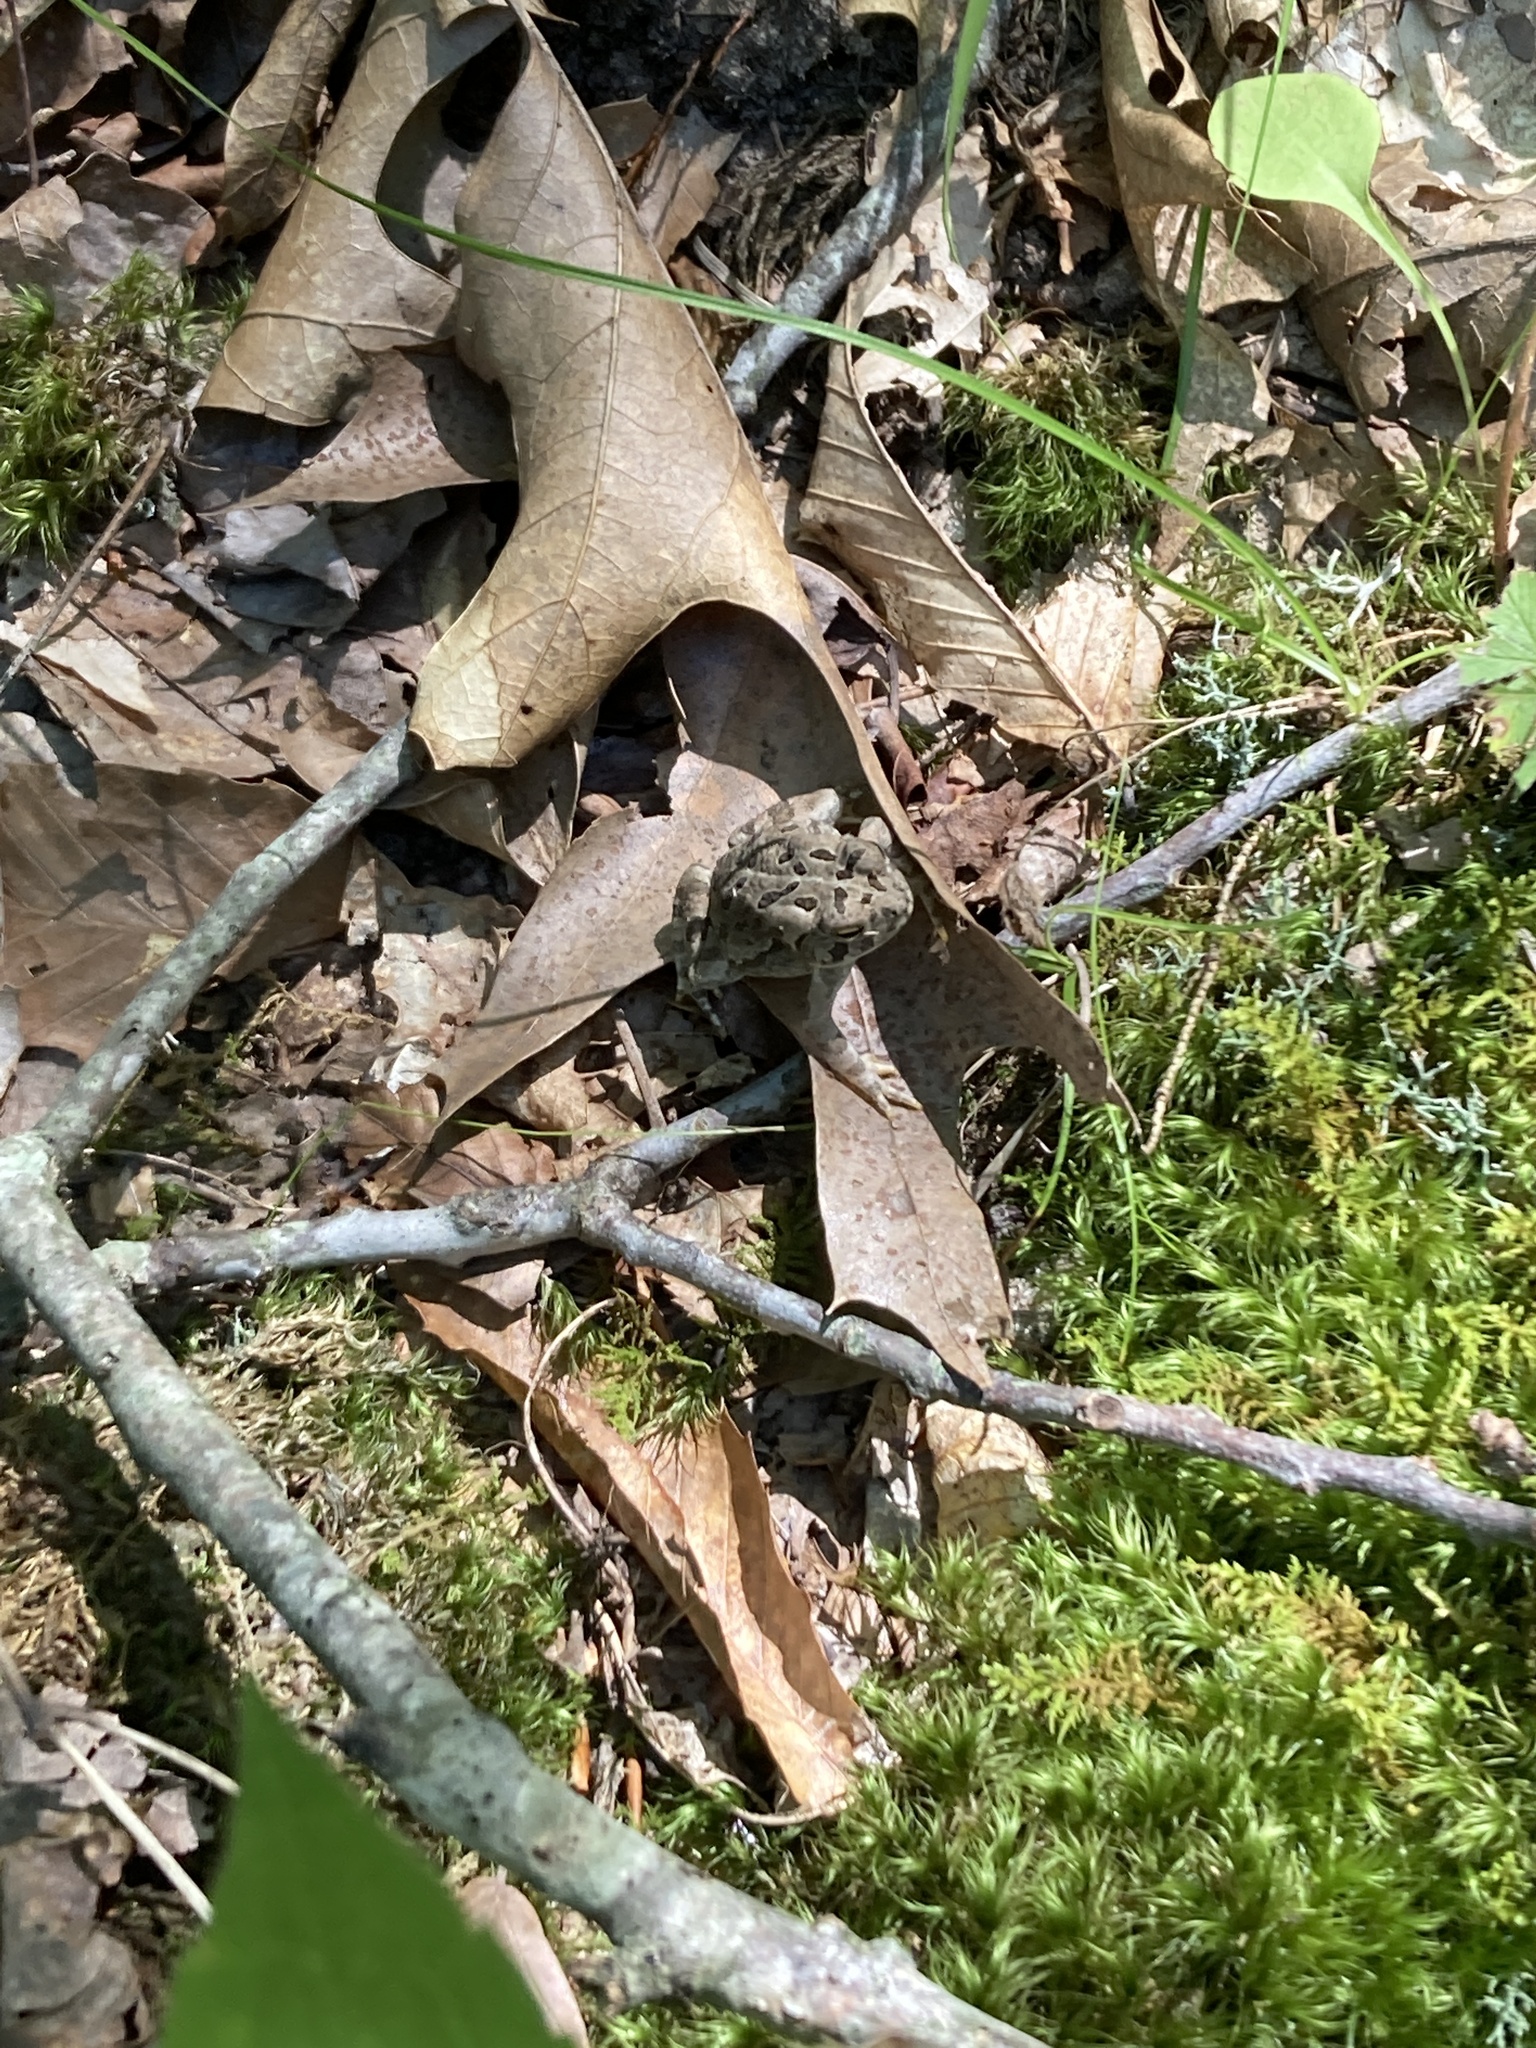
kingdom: Animalia
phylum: Chordata
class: Amphibia
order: Anura
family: Bufonidae
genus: Anaxyrus
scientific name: Anaxyrus fowleri
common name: Fowler's toad
